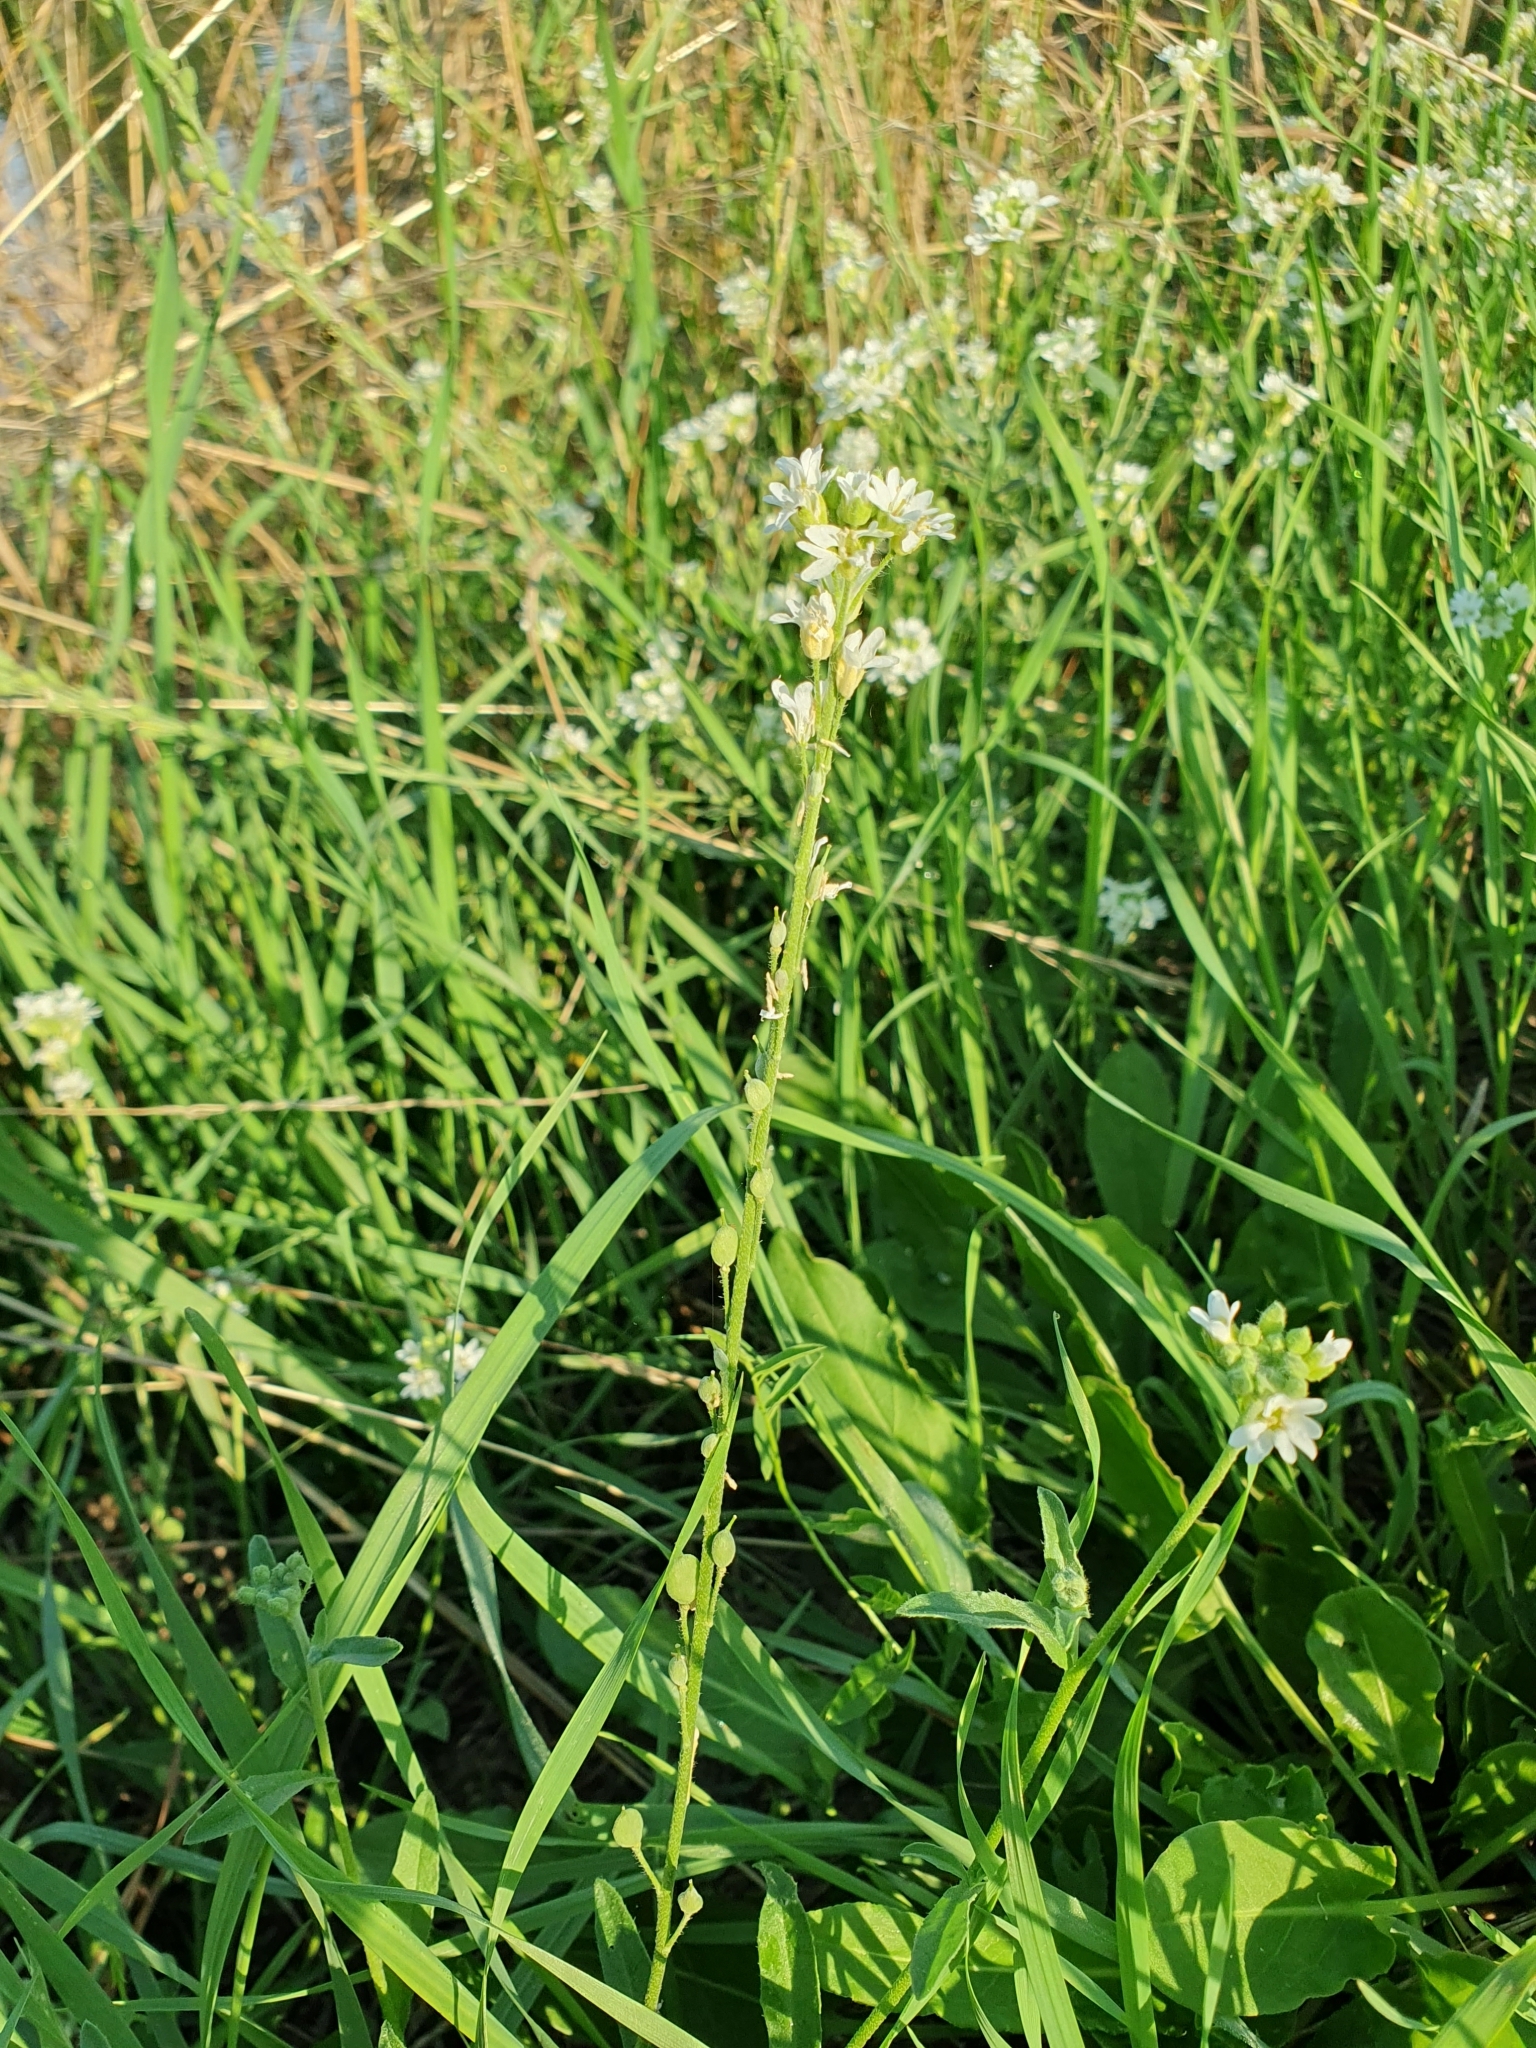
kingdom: Plantae
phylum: Tracheophyta
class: Magnoliopsida
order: Brassicales
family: Brassicaceae
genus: Berteroa
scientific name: Berteroa incana
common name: Hoary alison
